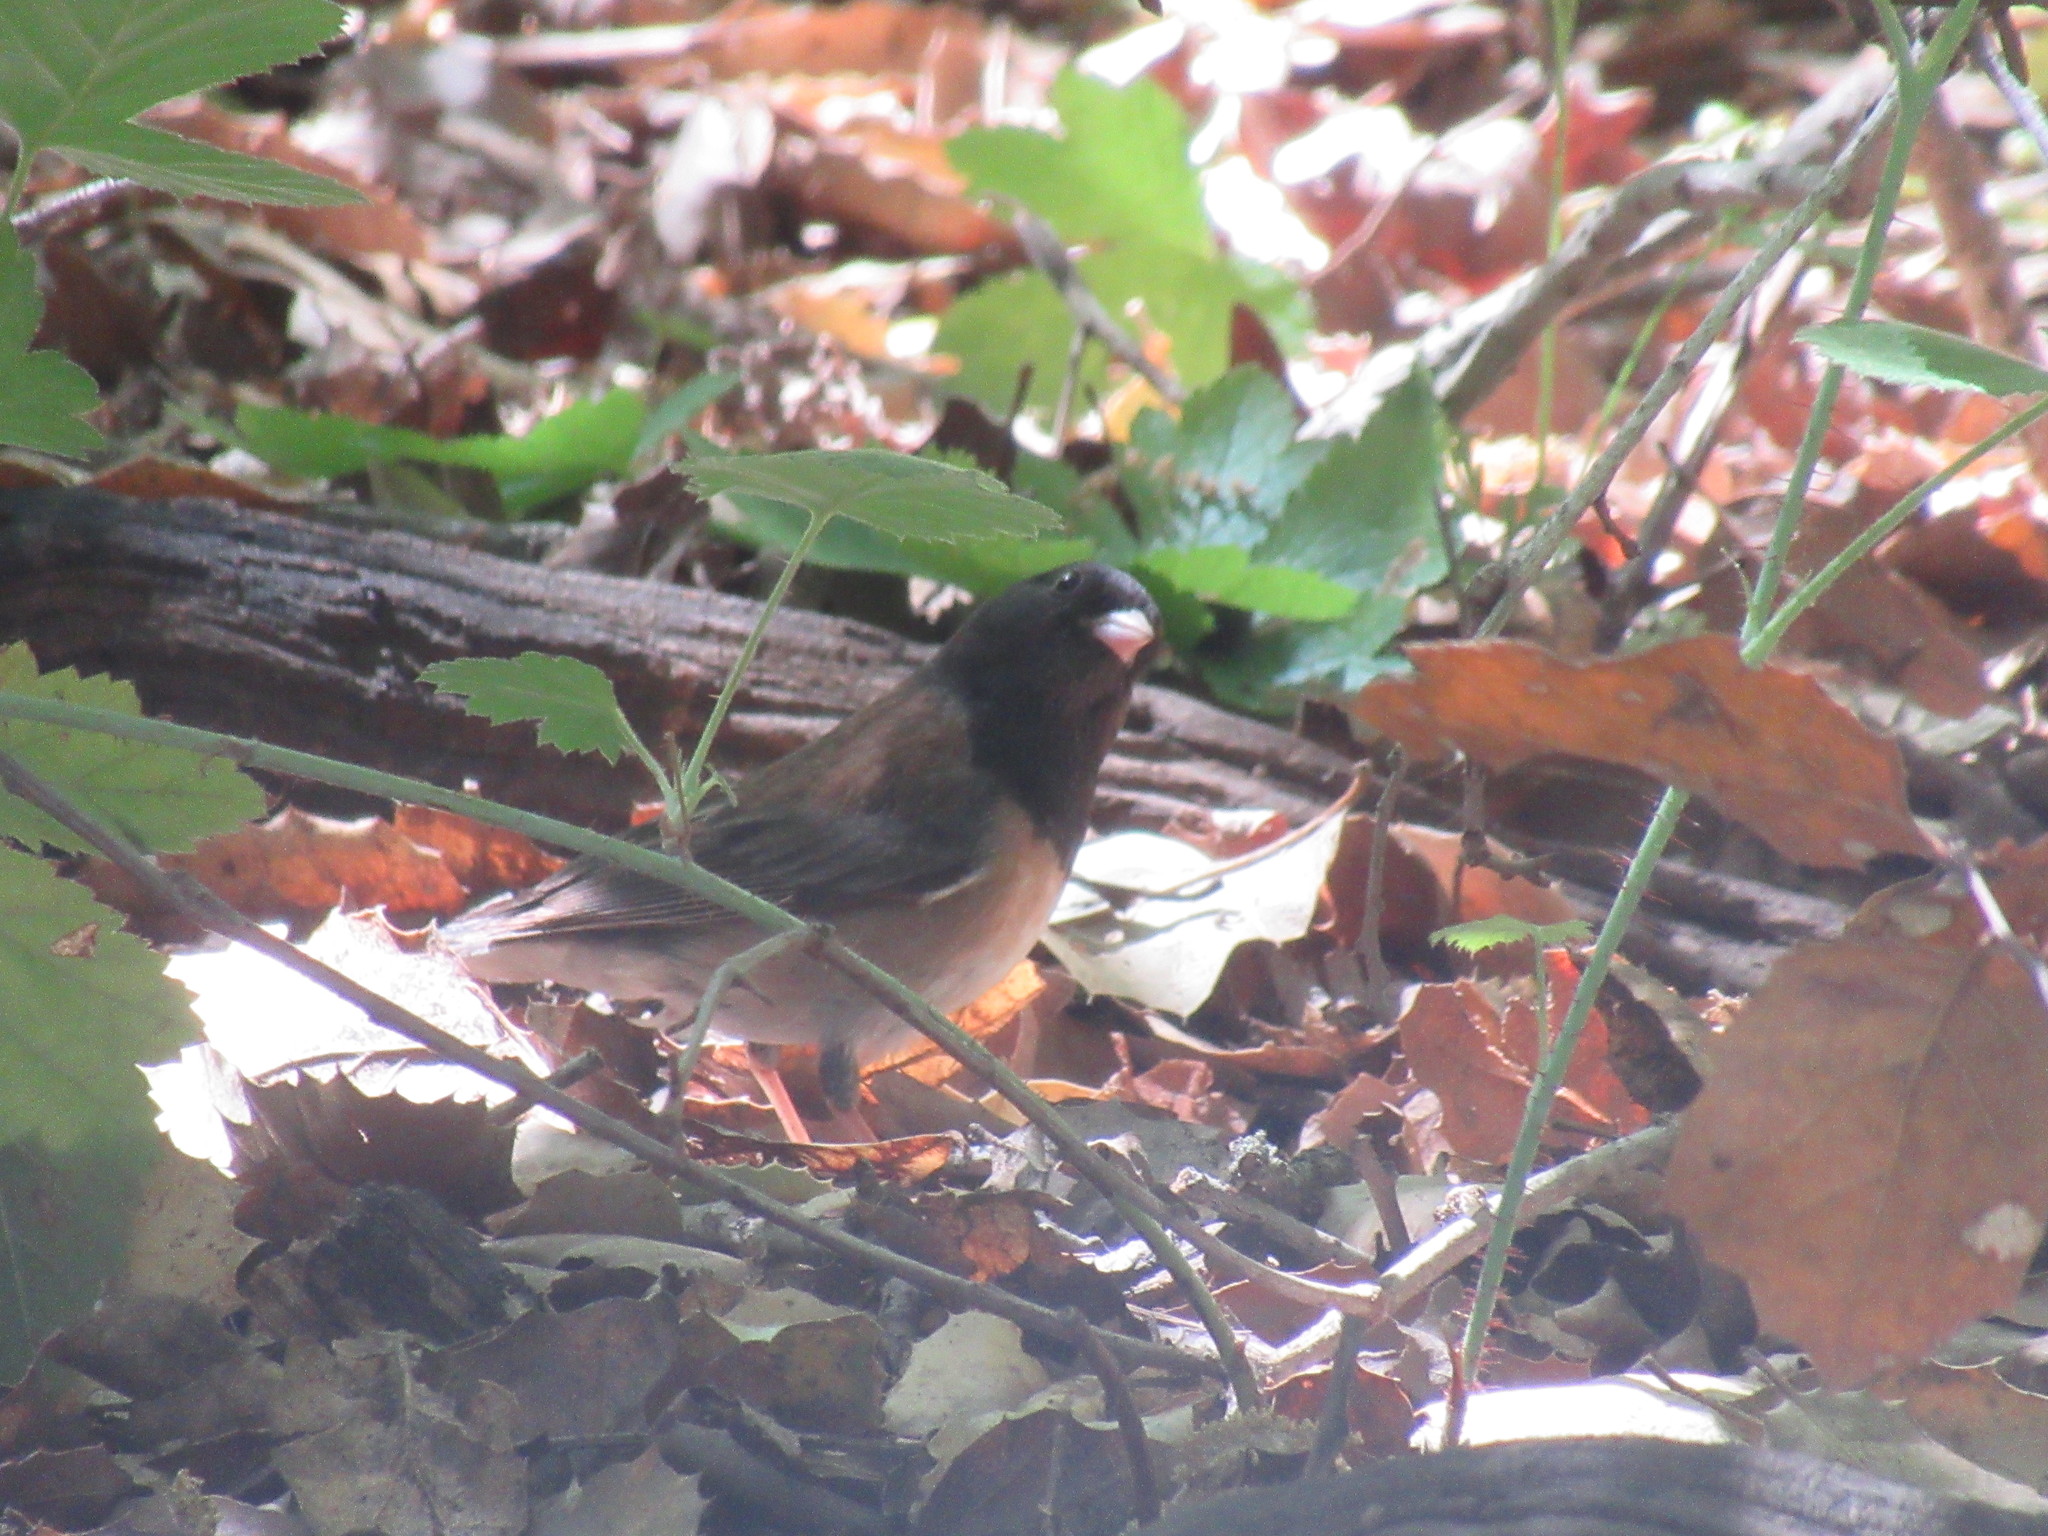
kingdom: Animalia
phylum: Chordata
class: Aves
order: Passeriformes
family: Passerellidae
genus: Junco
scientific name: Junco hyemalis
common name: Dark-eyed junco
